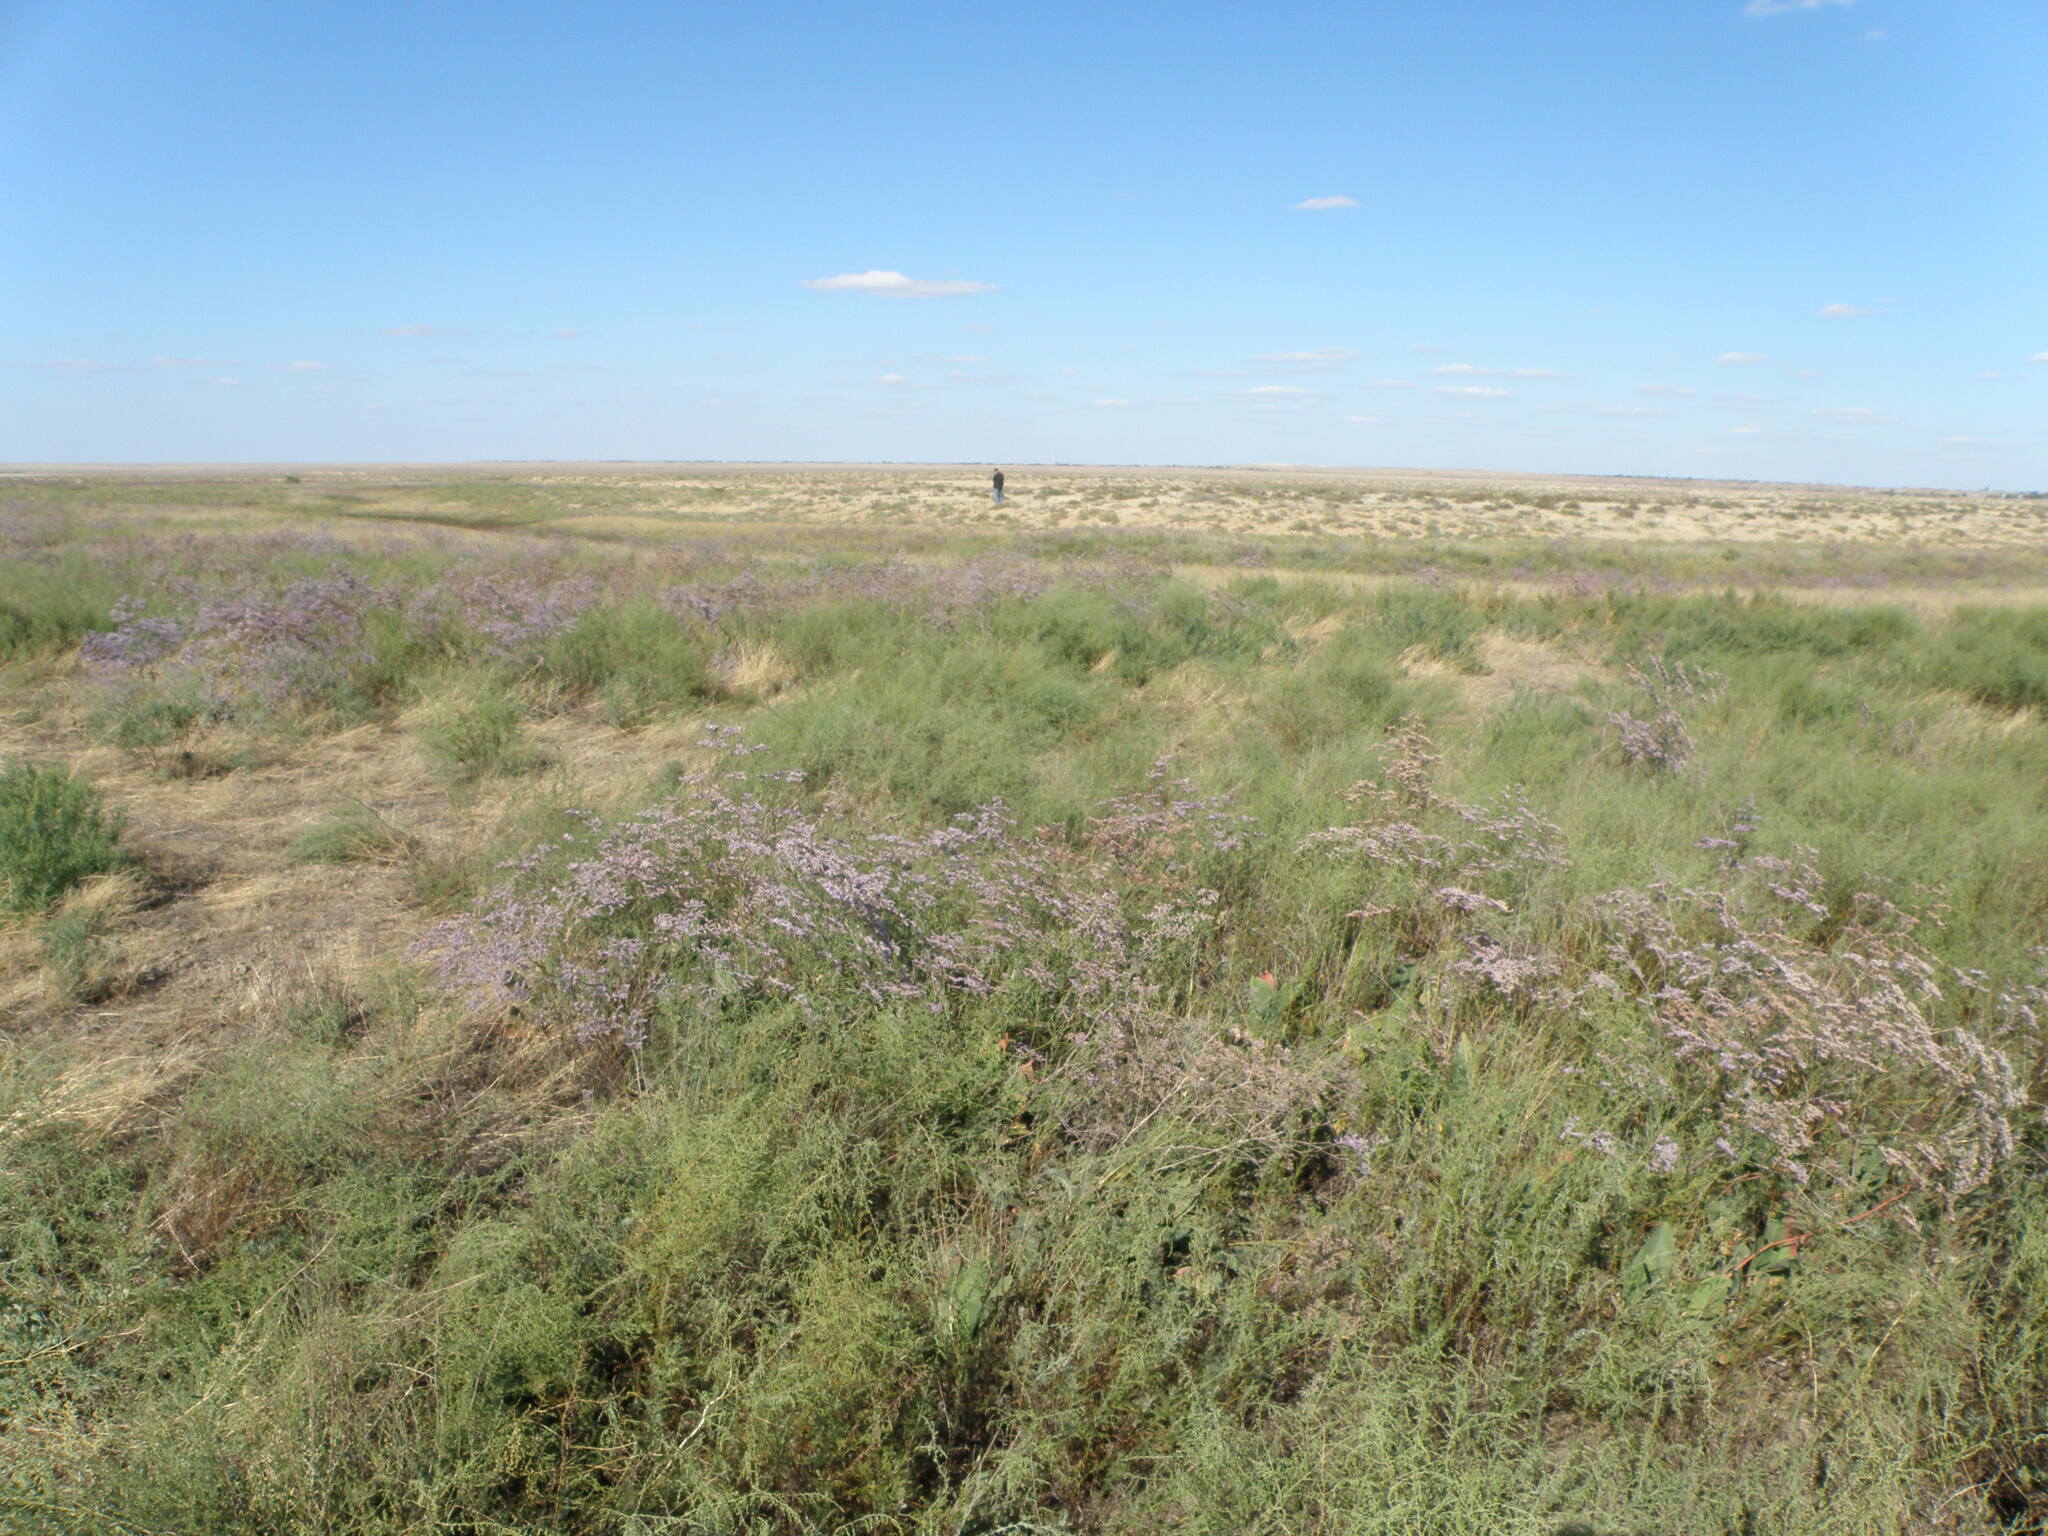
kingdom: Plantae
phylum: Tracheophyta
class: Magnoliopsida
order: Caryophyllales
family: Plumbaginaceae
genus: Limonium
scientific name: Limonium gmelini
